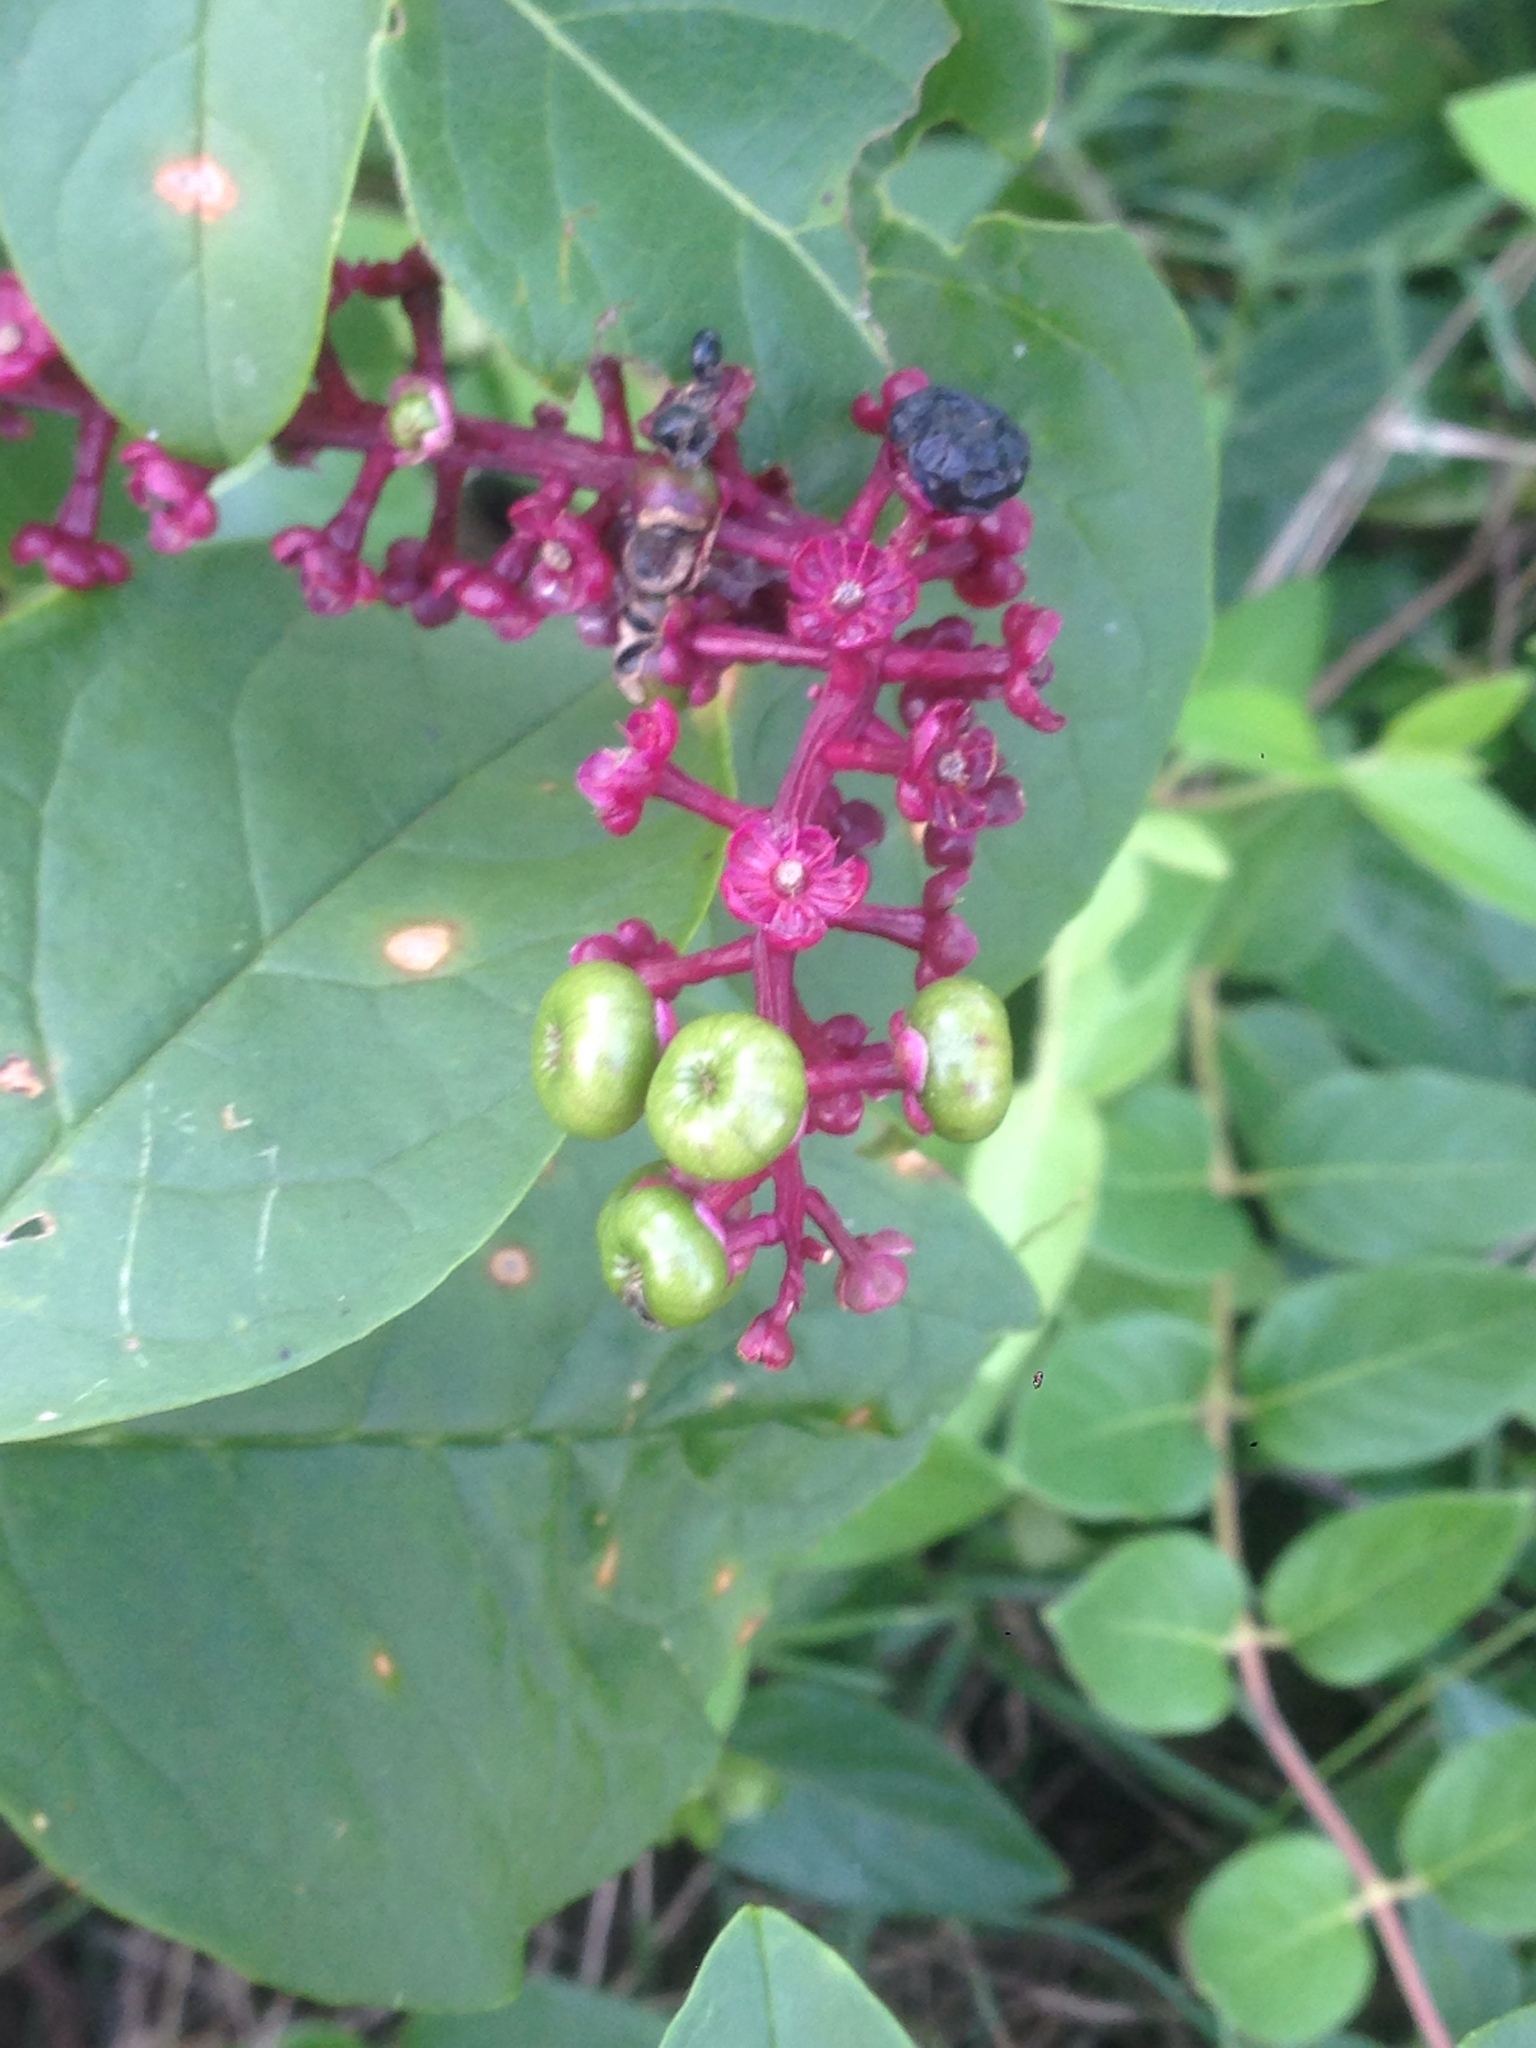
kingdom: Plantae
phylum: Tracheophyta
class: Magnoliopsida
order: Caryophyllales
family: Phytolaccaceae
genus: Phytolacca
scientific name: Phytolacca americana
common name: American pokeweed
